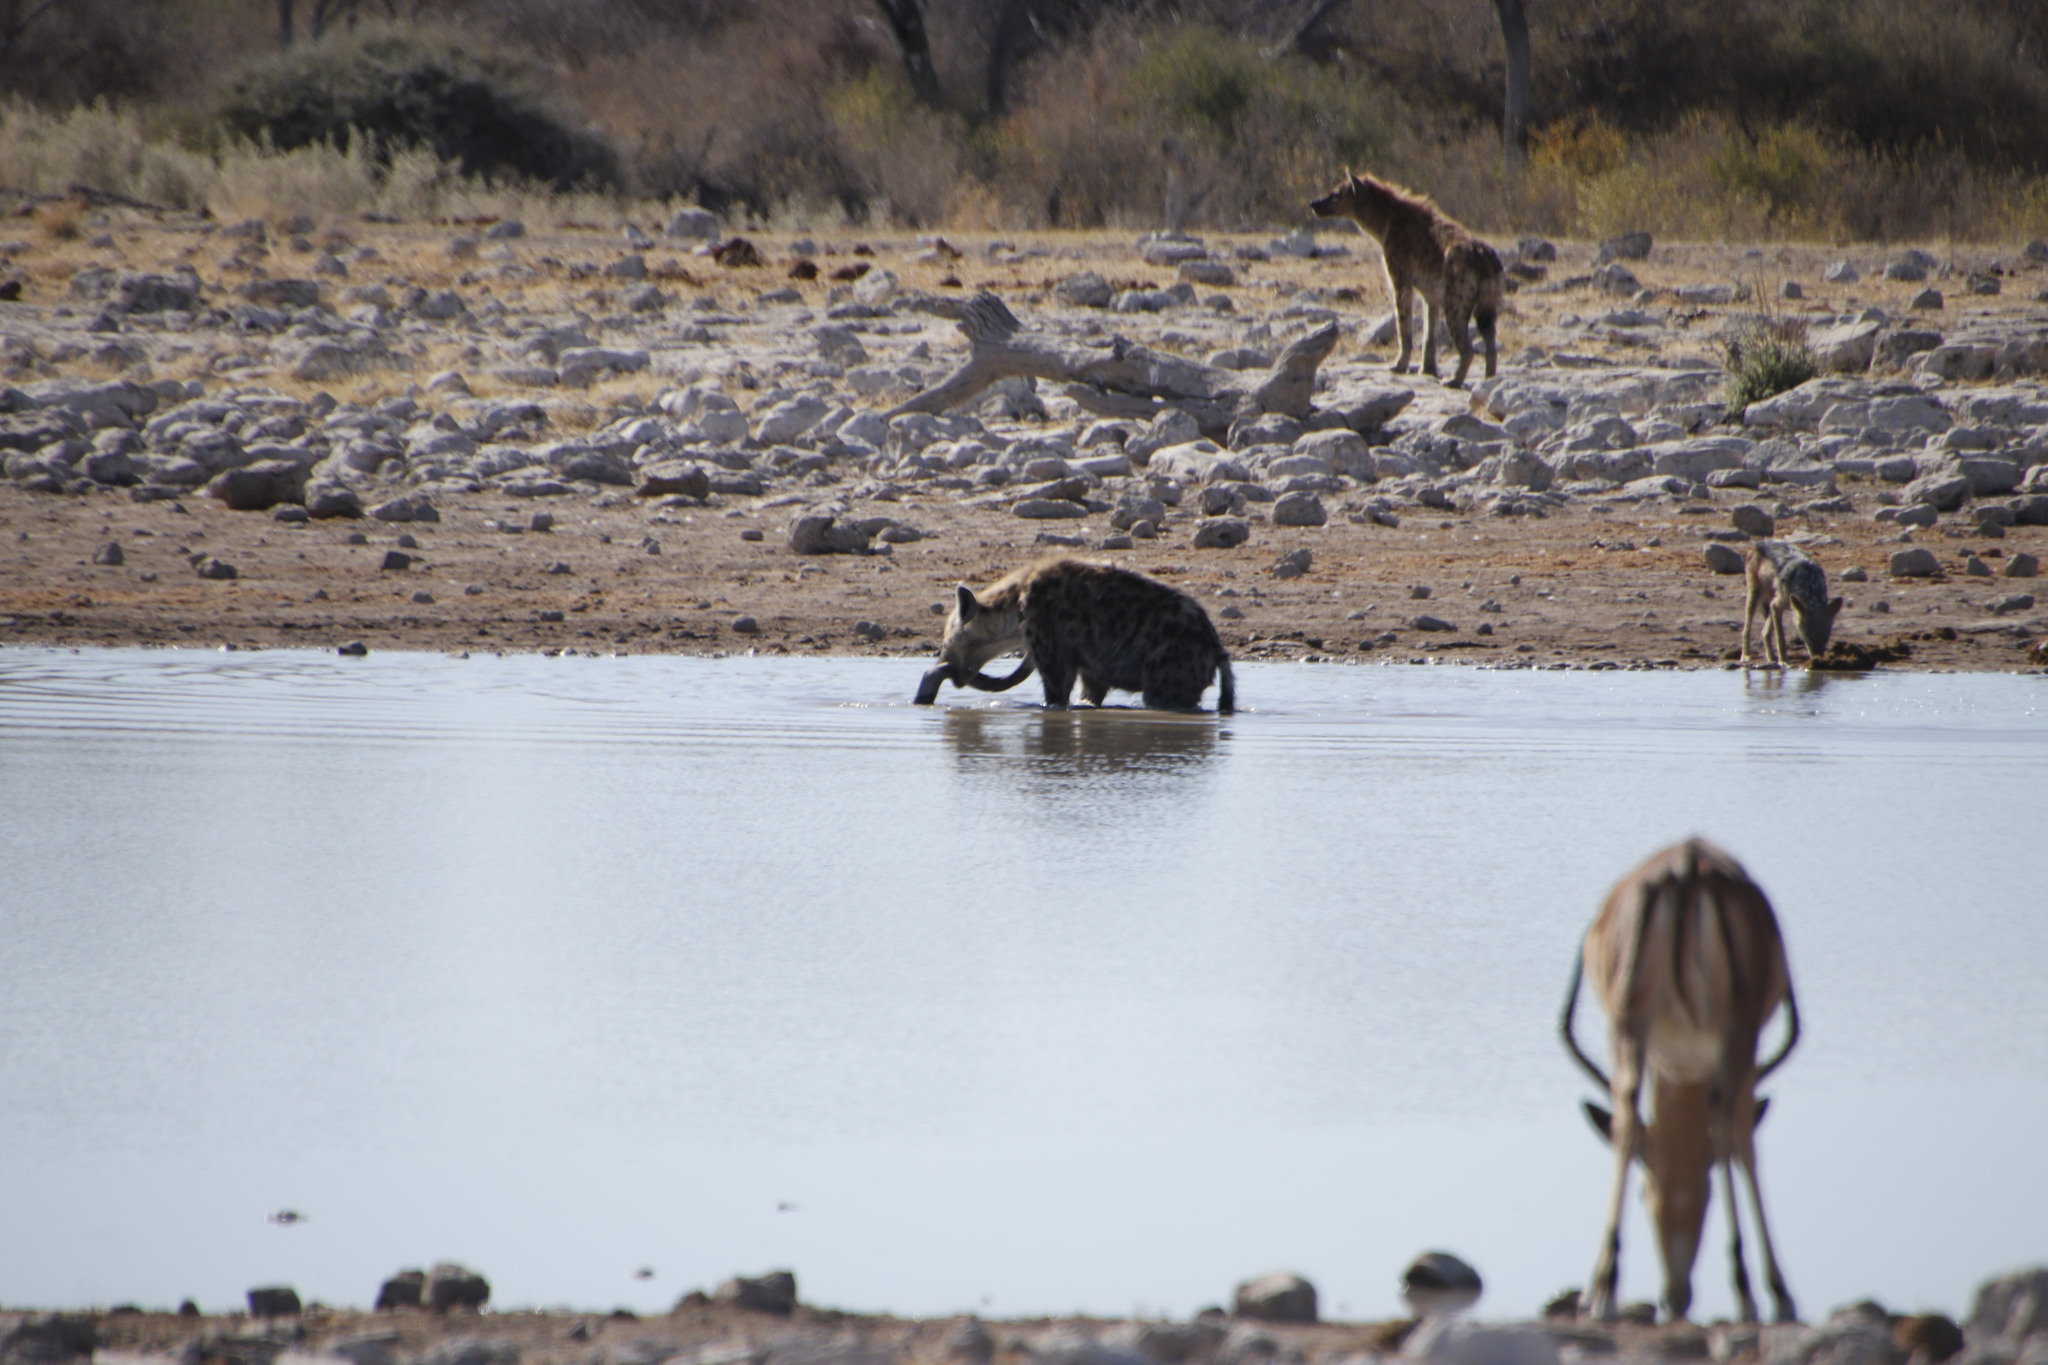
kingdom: Animalia
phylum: Chordata
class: Mammalia
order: Artiodactyla
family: Bovidae
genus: Aepyceros
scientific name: Aepyceros melampus
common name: Impala
